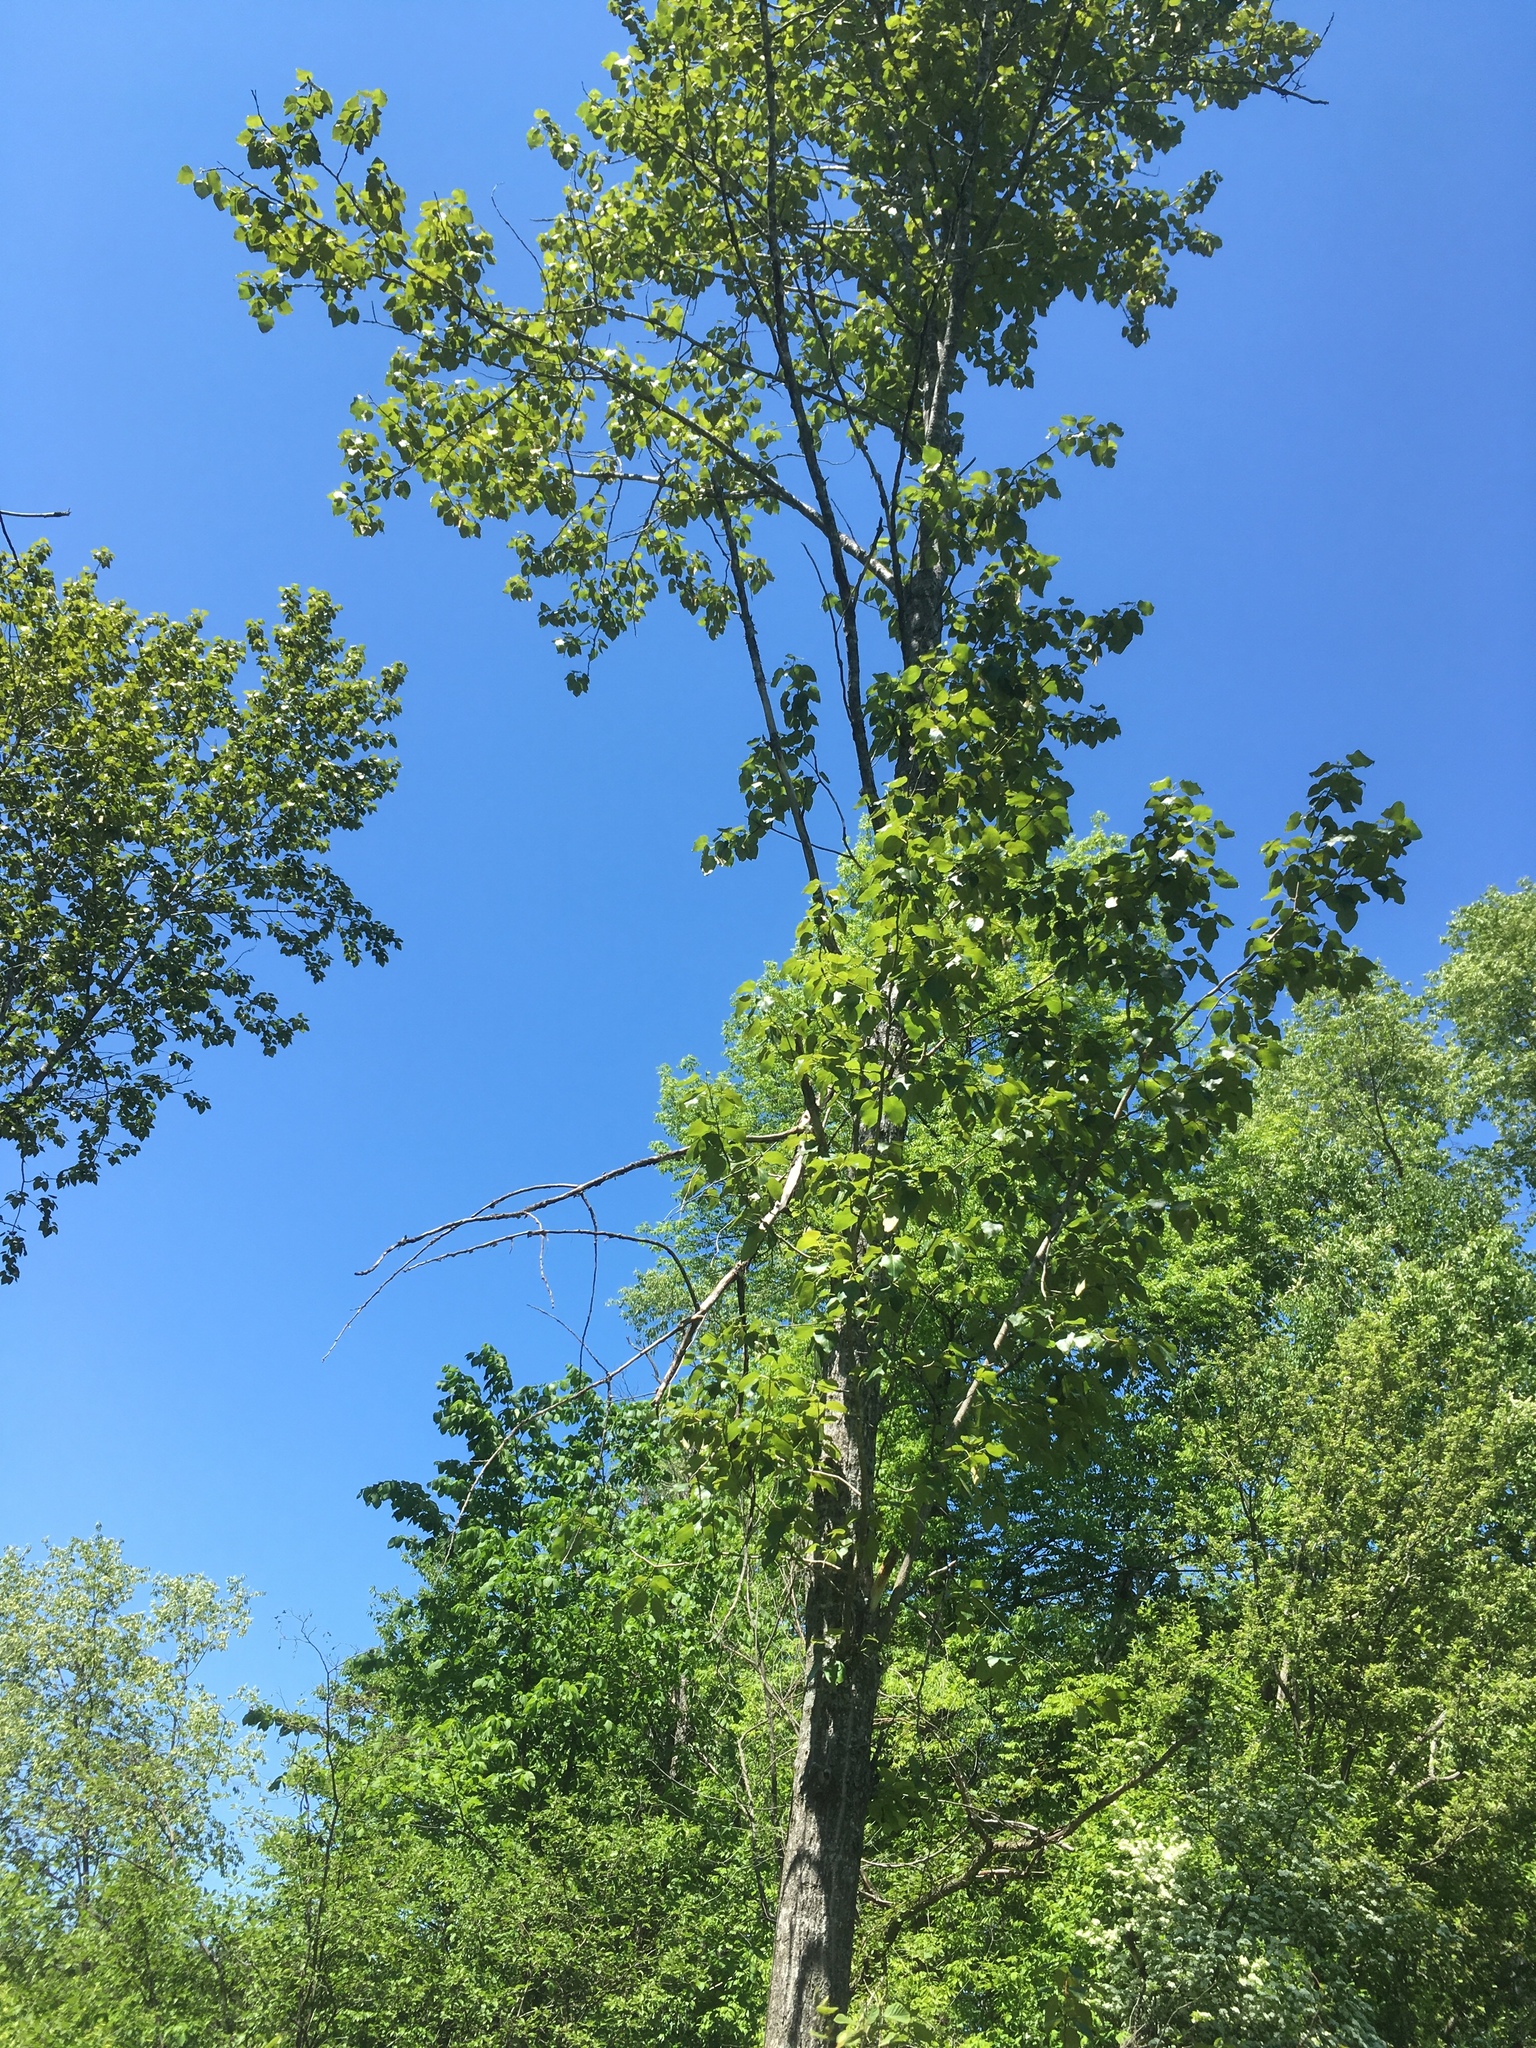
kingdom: Plantae
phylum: Tracheophyta
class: Magnoliopsida
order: Malpighiales
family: Salicaceae
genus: Populus
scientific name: Populus balsamifera
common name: Balsam poplar
